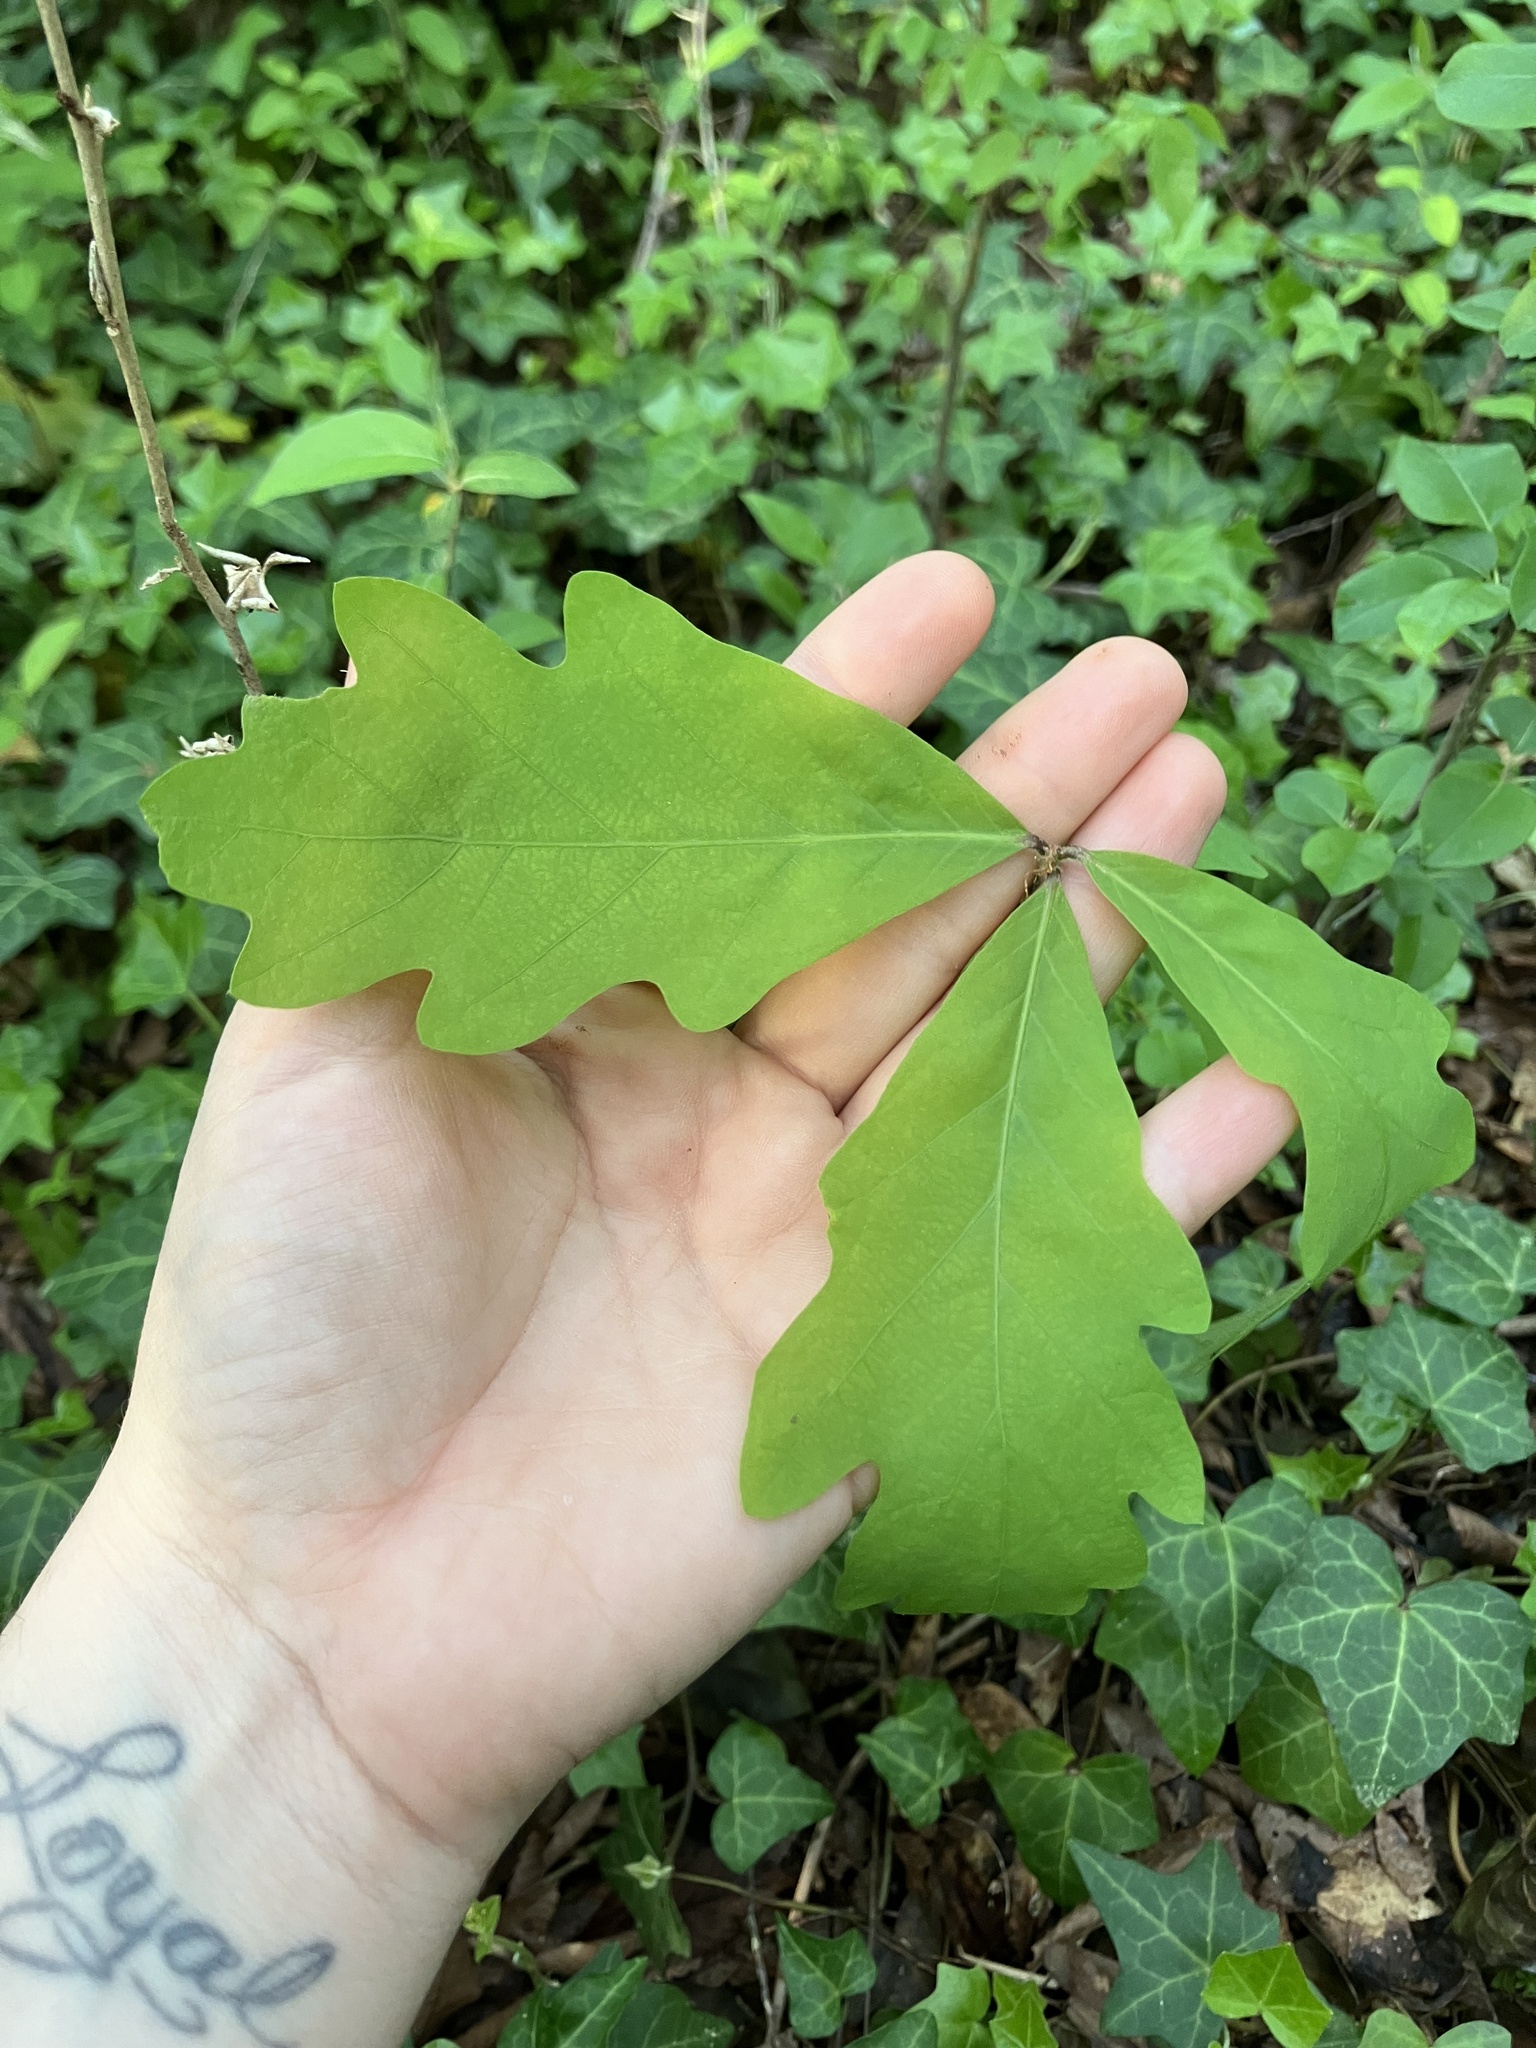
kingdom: Plantae
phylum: Tracheophyta
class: Magnoliopsida
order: Fagales
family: Fagaceae
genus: Quercus
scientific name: Quercus alba
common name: White oak
